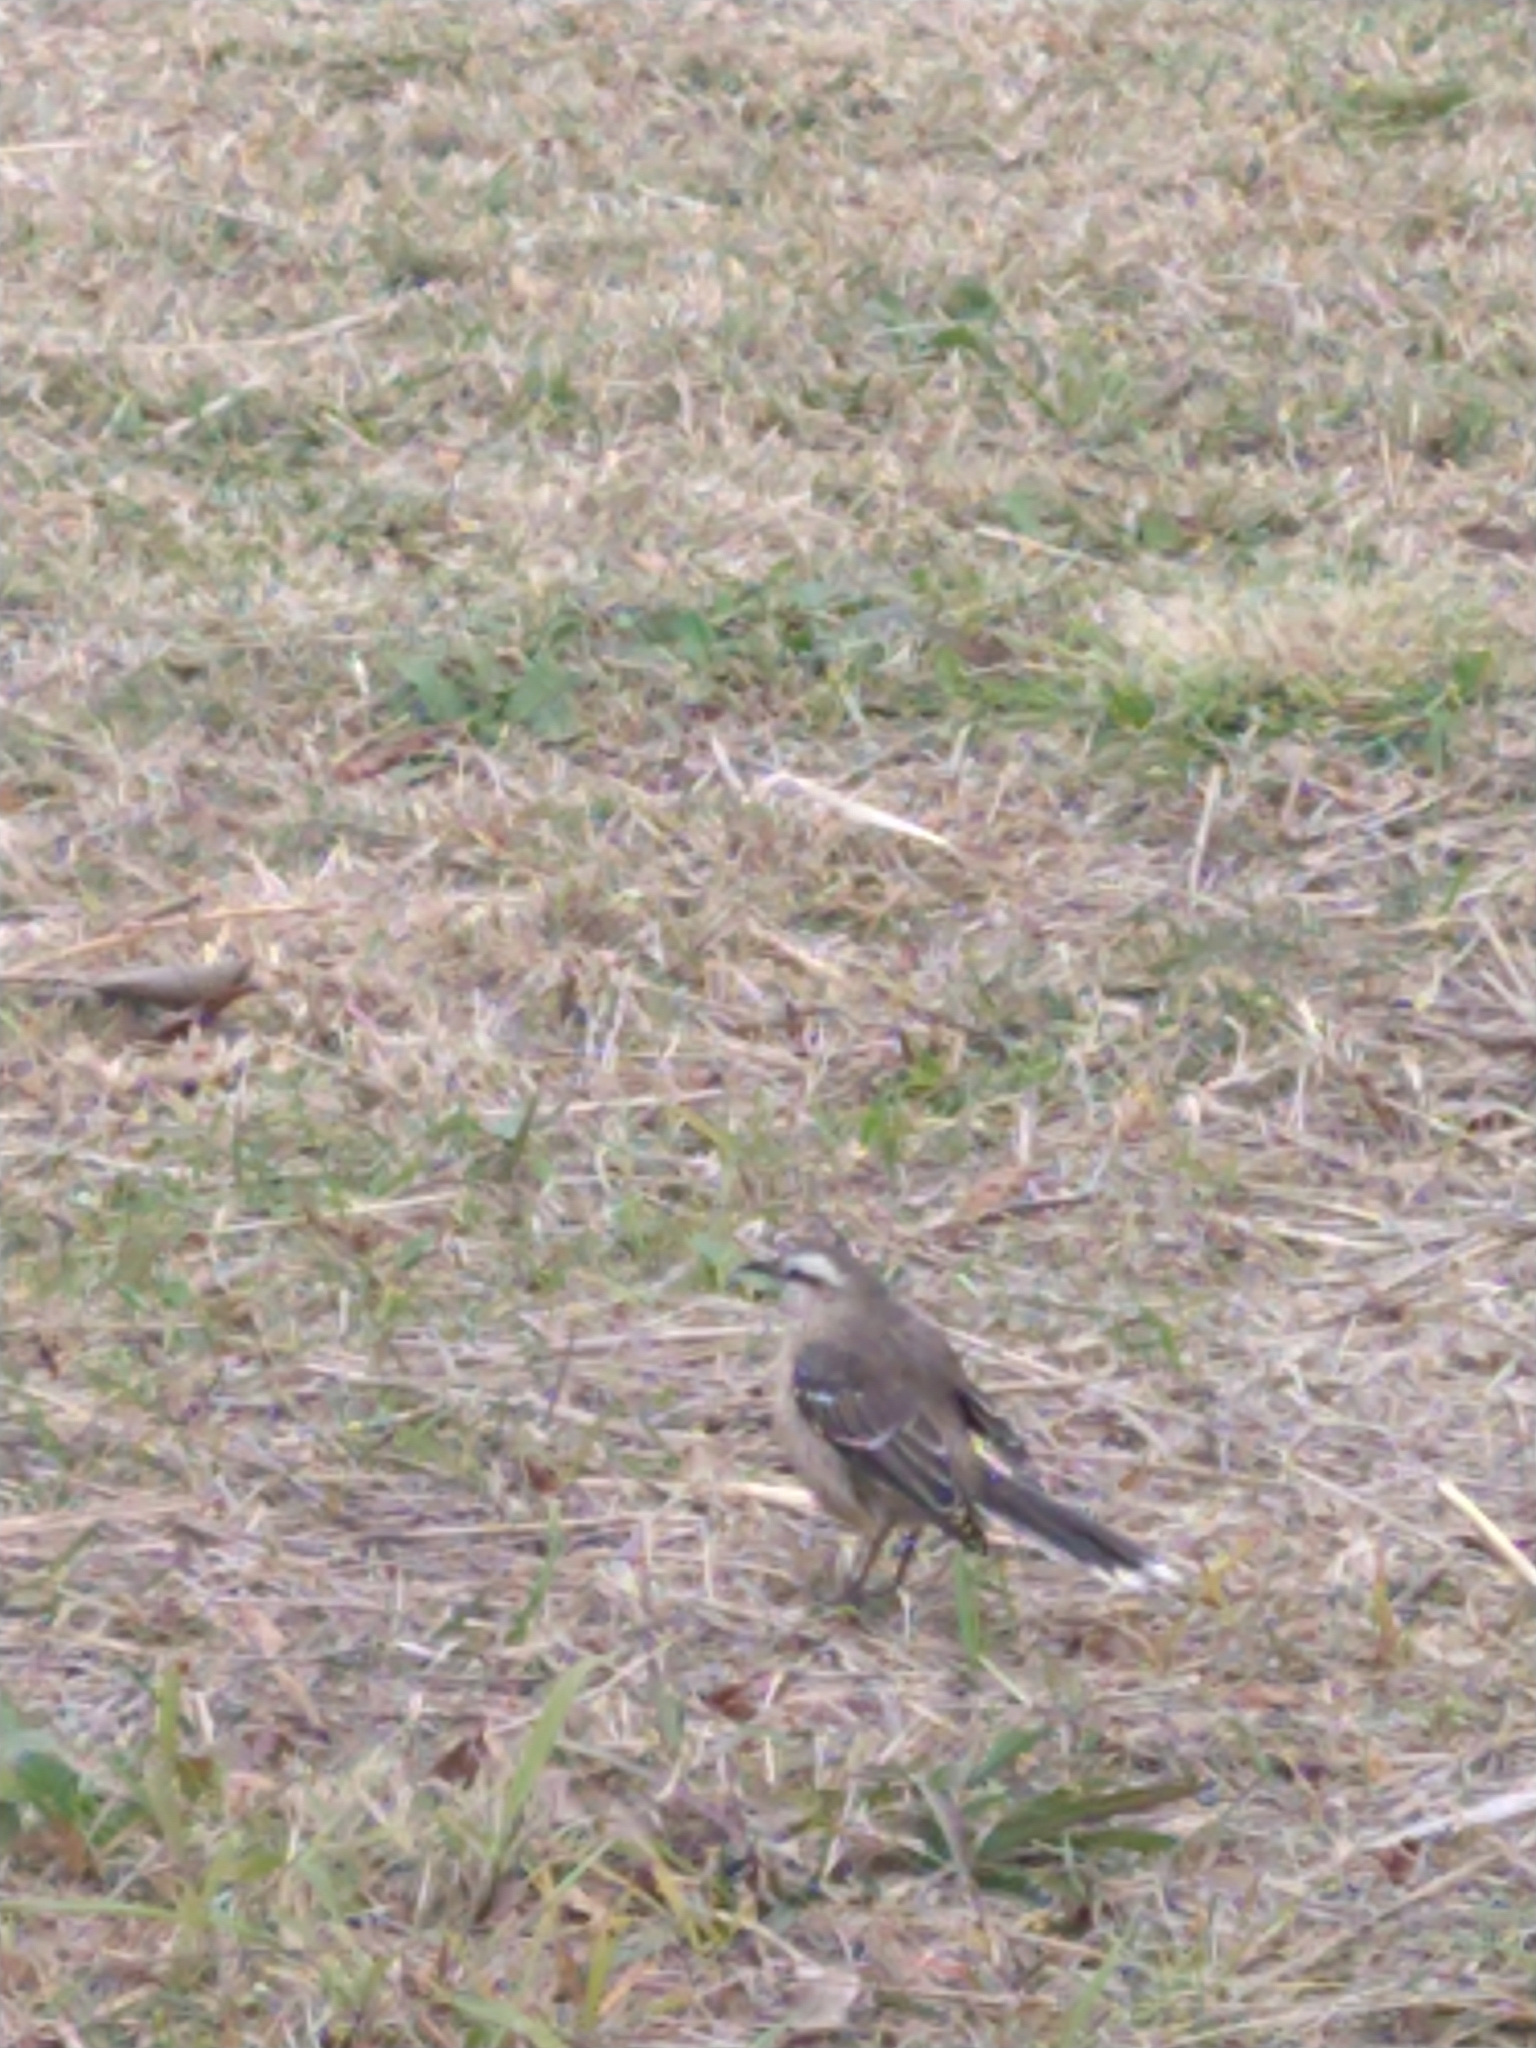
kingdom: Animalia
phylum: Chordata
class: Aves
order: Passeriformes
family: Mimidae
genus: Mimus
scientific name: Mimus saturninus
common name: Chalk-browed mockingbird
